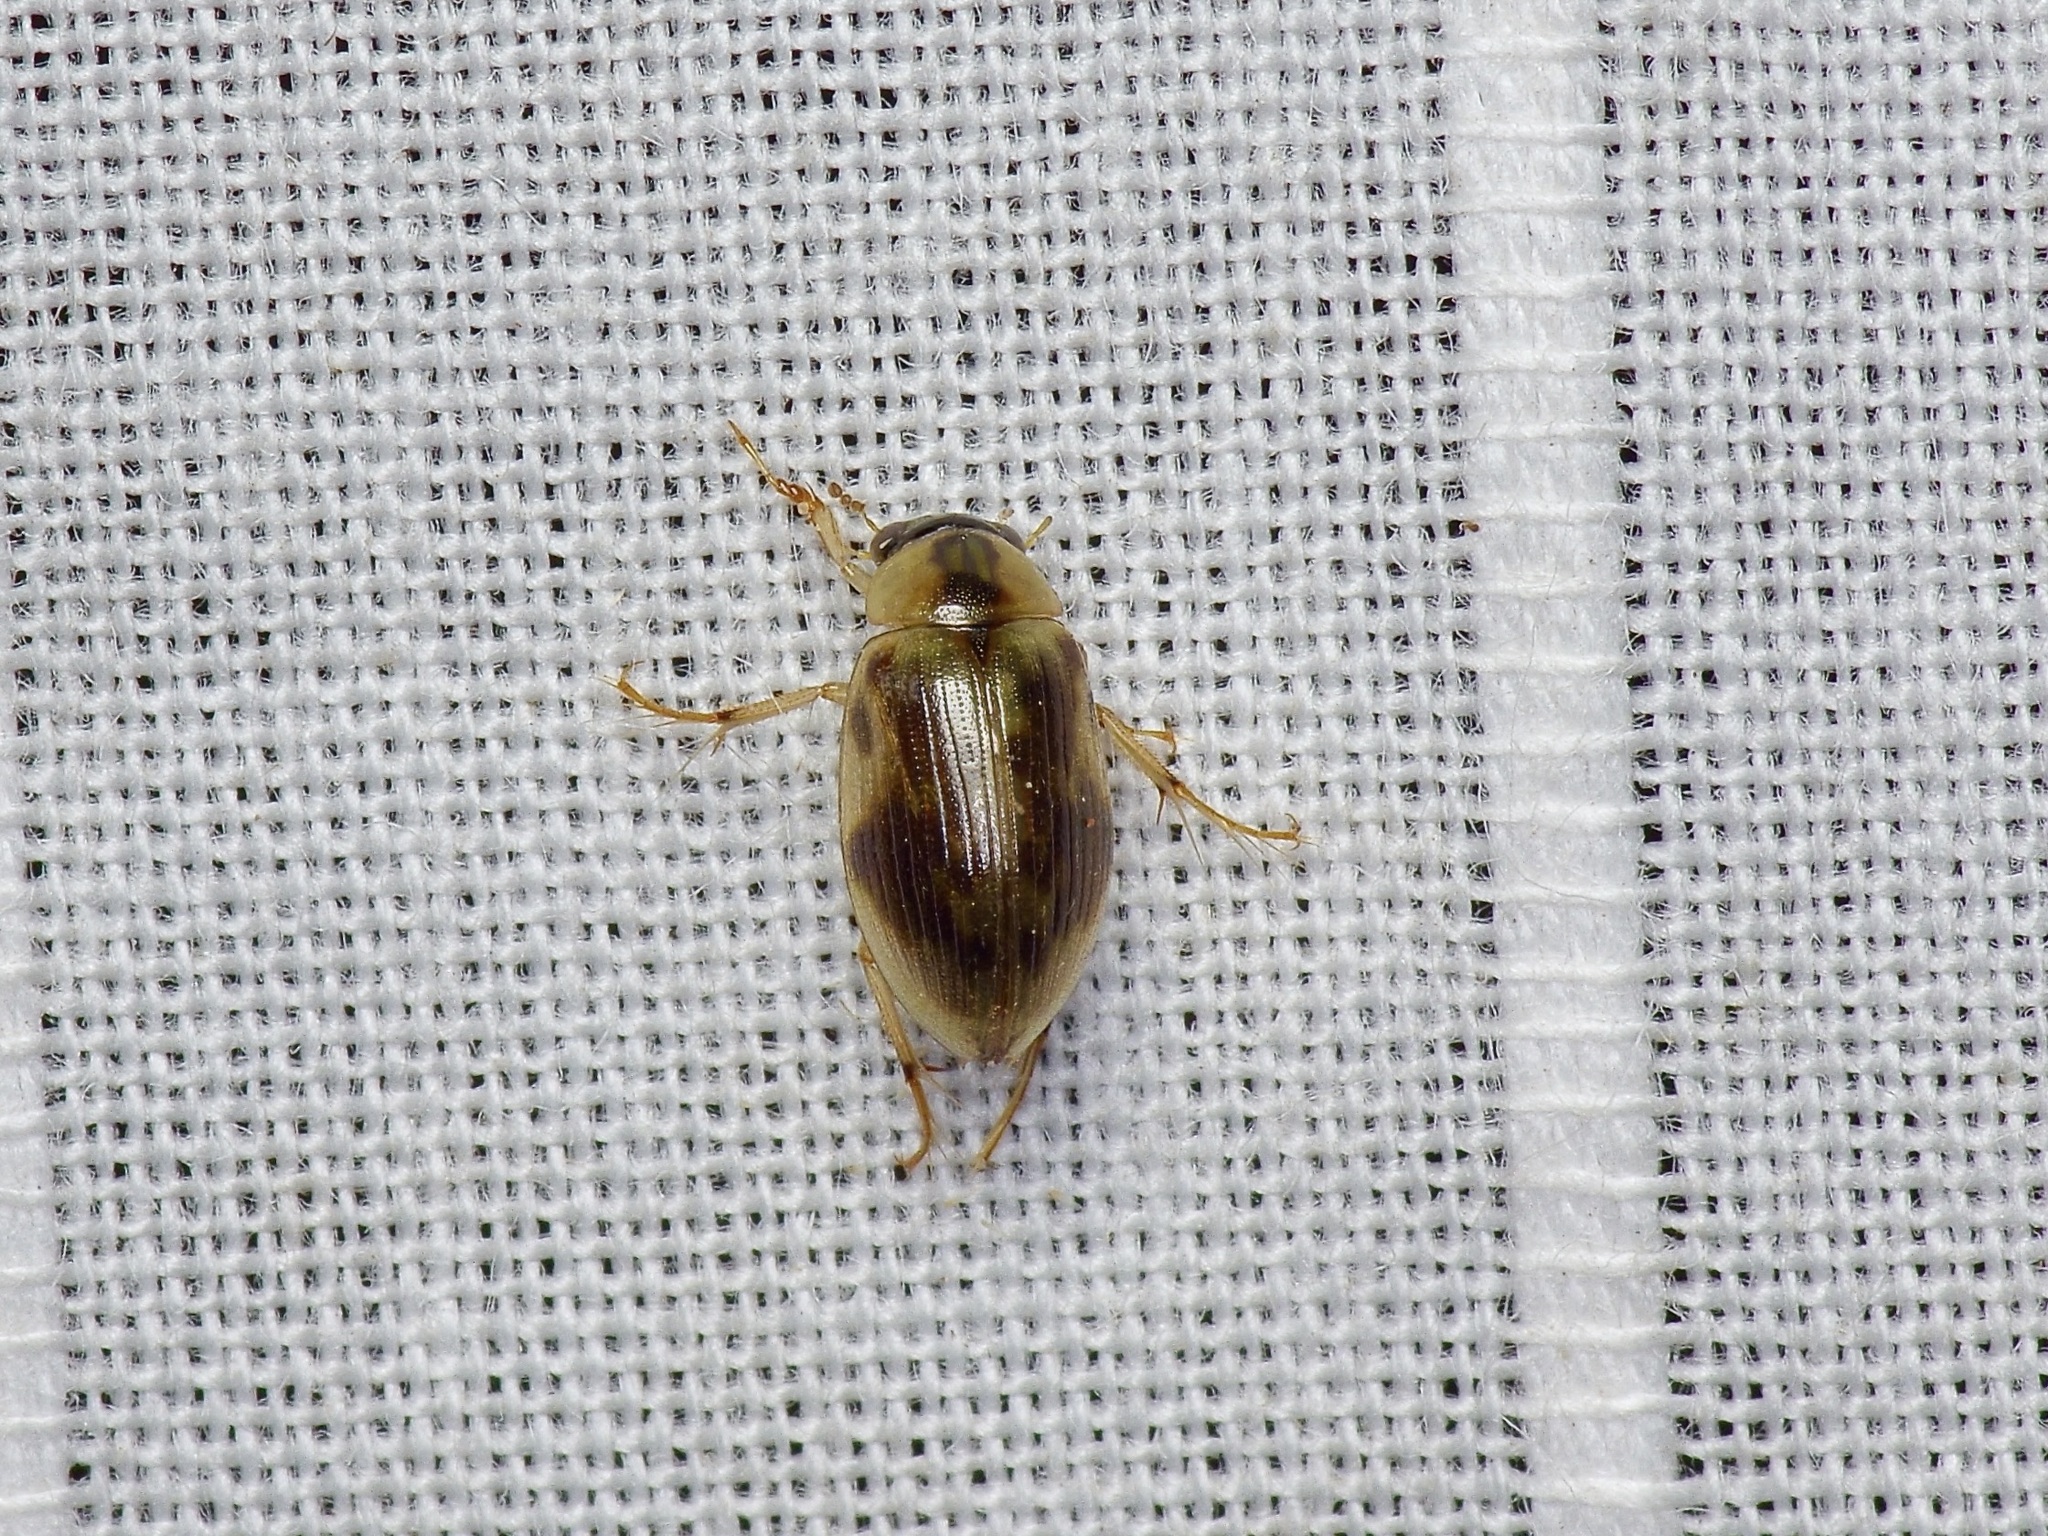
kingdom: Animalia
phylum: Arthropoda
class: Insecta
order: Coleoptera
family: Hydrophilidae
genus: Berosus
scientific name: Berosus miles
